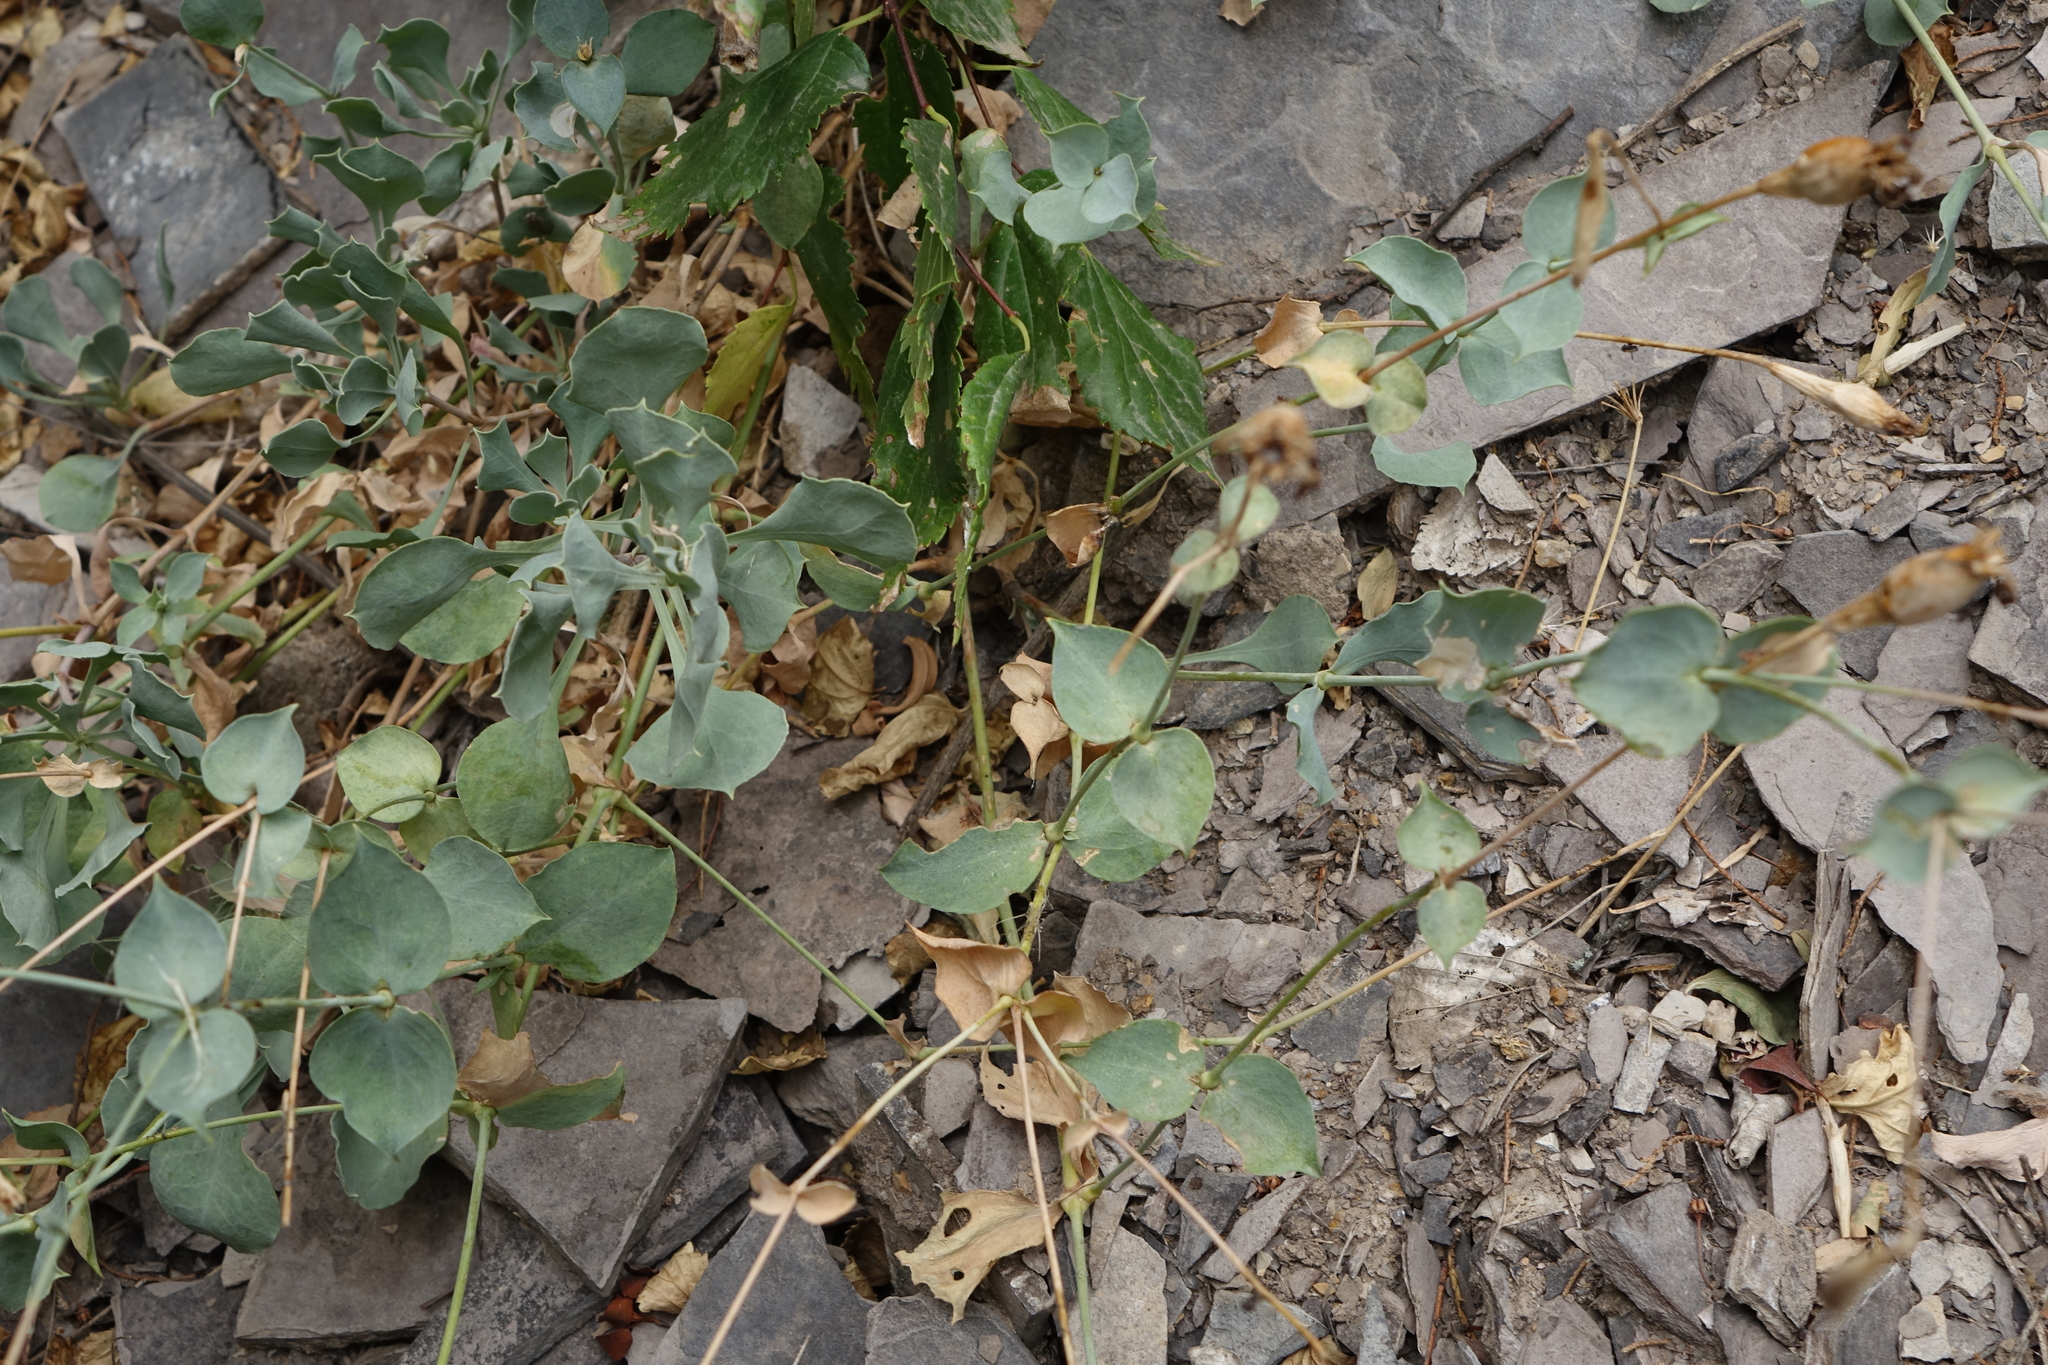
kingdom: Plantae
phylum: Tracheophyta
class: Magnoliopsida
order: Caryophyllales
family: Caryophyllaceae
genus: Silene
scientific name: Silene chlorifolia
